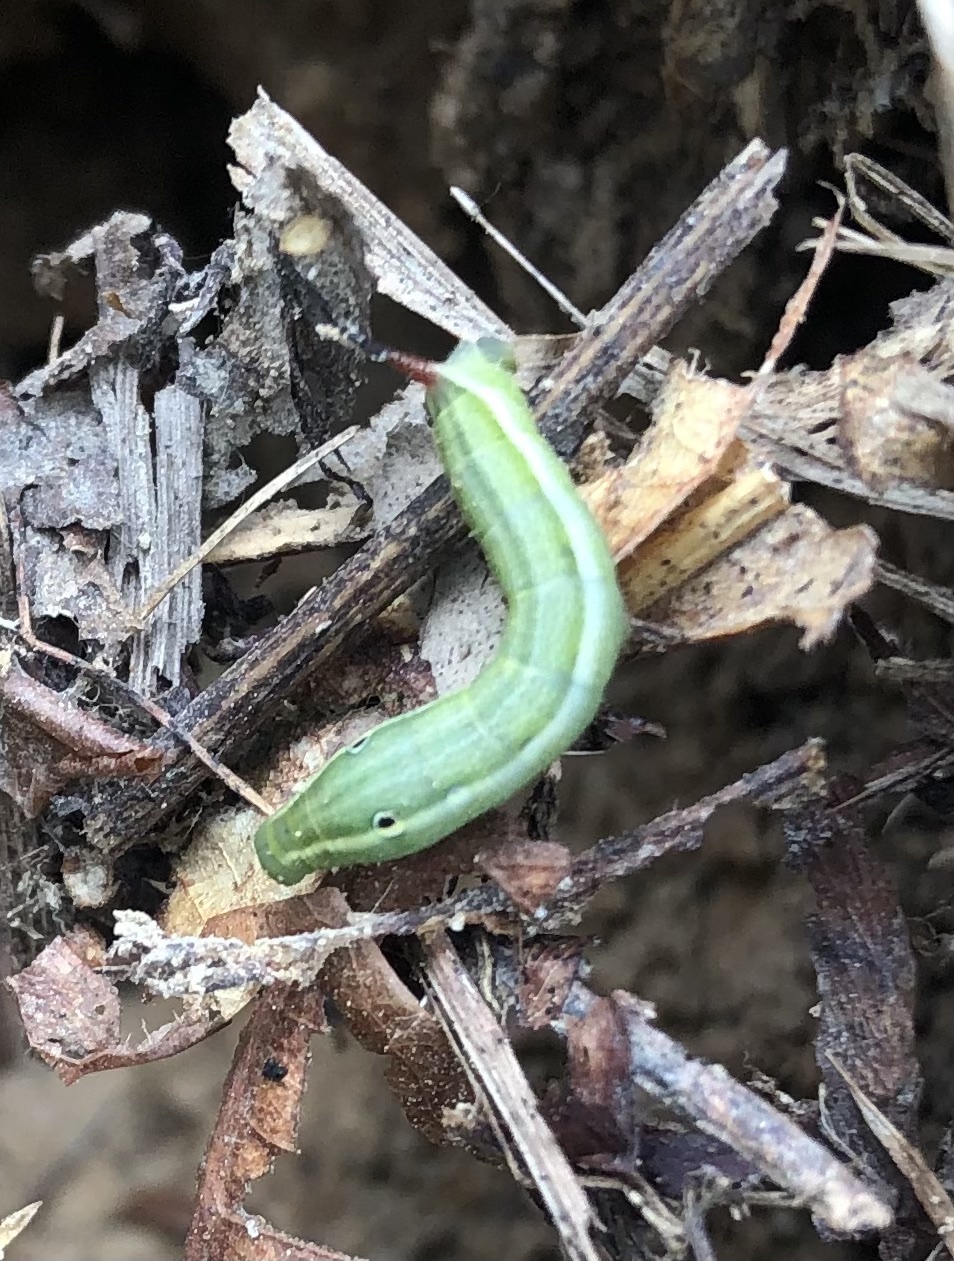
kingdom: Animalia
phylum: Arthropoda
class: Insecta
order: Lepidoptera
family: Sphingidae
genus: Xylophanes
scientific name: Xylophanes tersa
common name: Tersa sphinx
